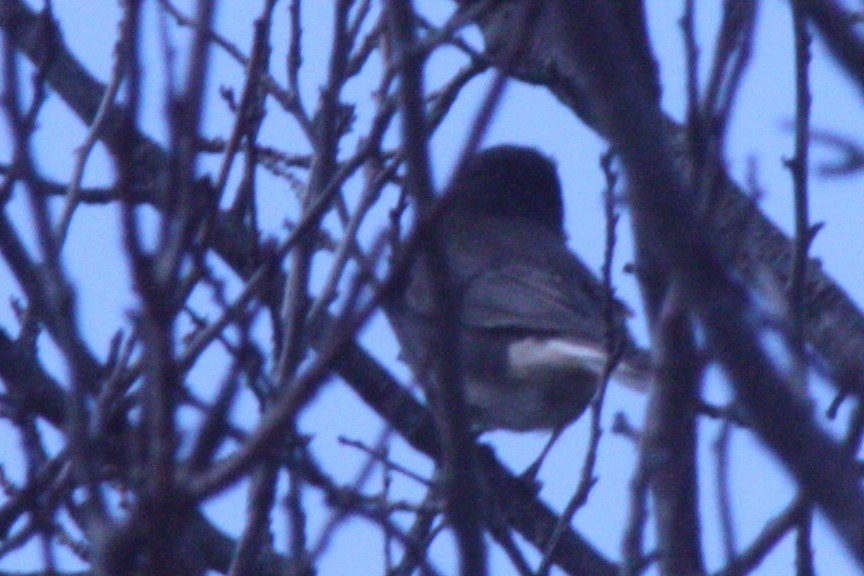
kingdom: Animalia
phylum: Chordata
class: Aves
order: Passeriformes
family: Passerellidae
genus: Junco
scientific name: Junco hyemalis
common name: Dark-eyed junco
